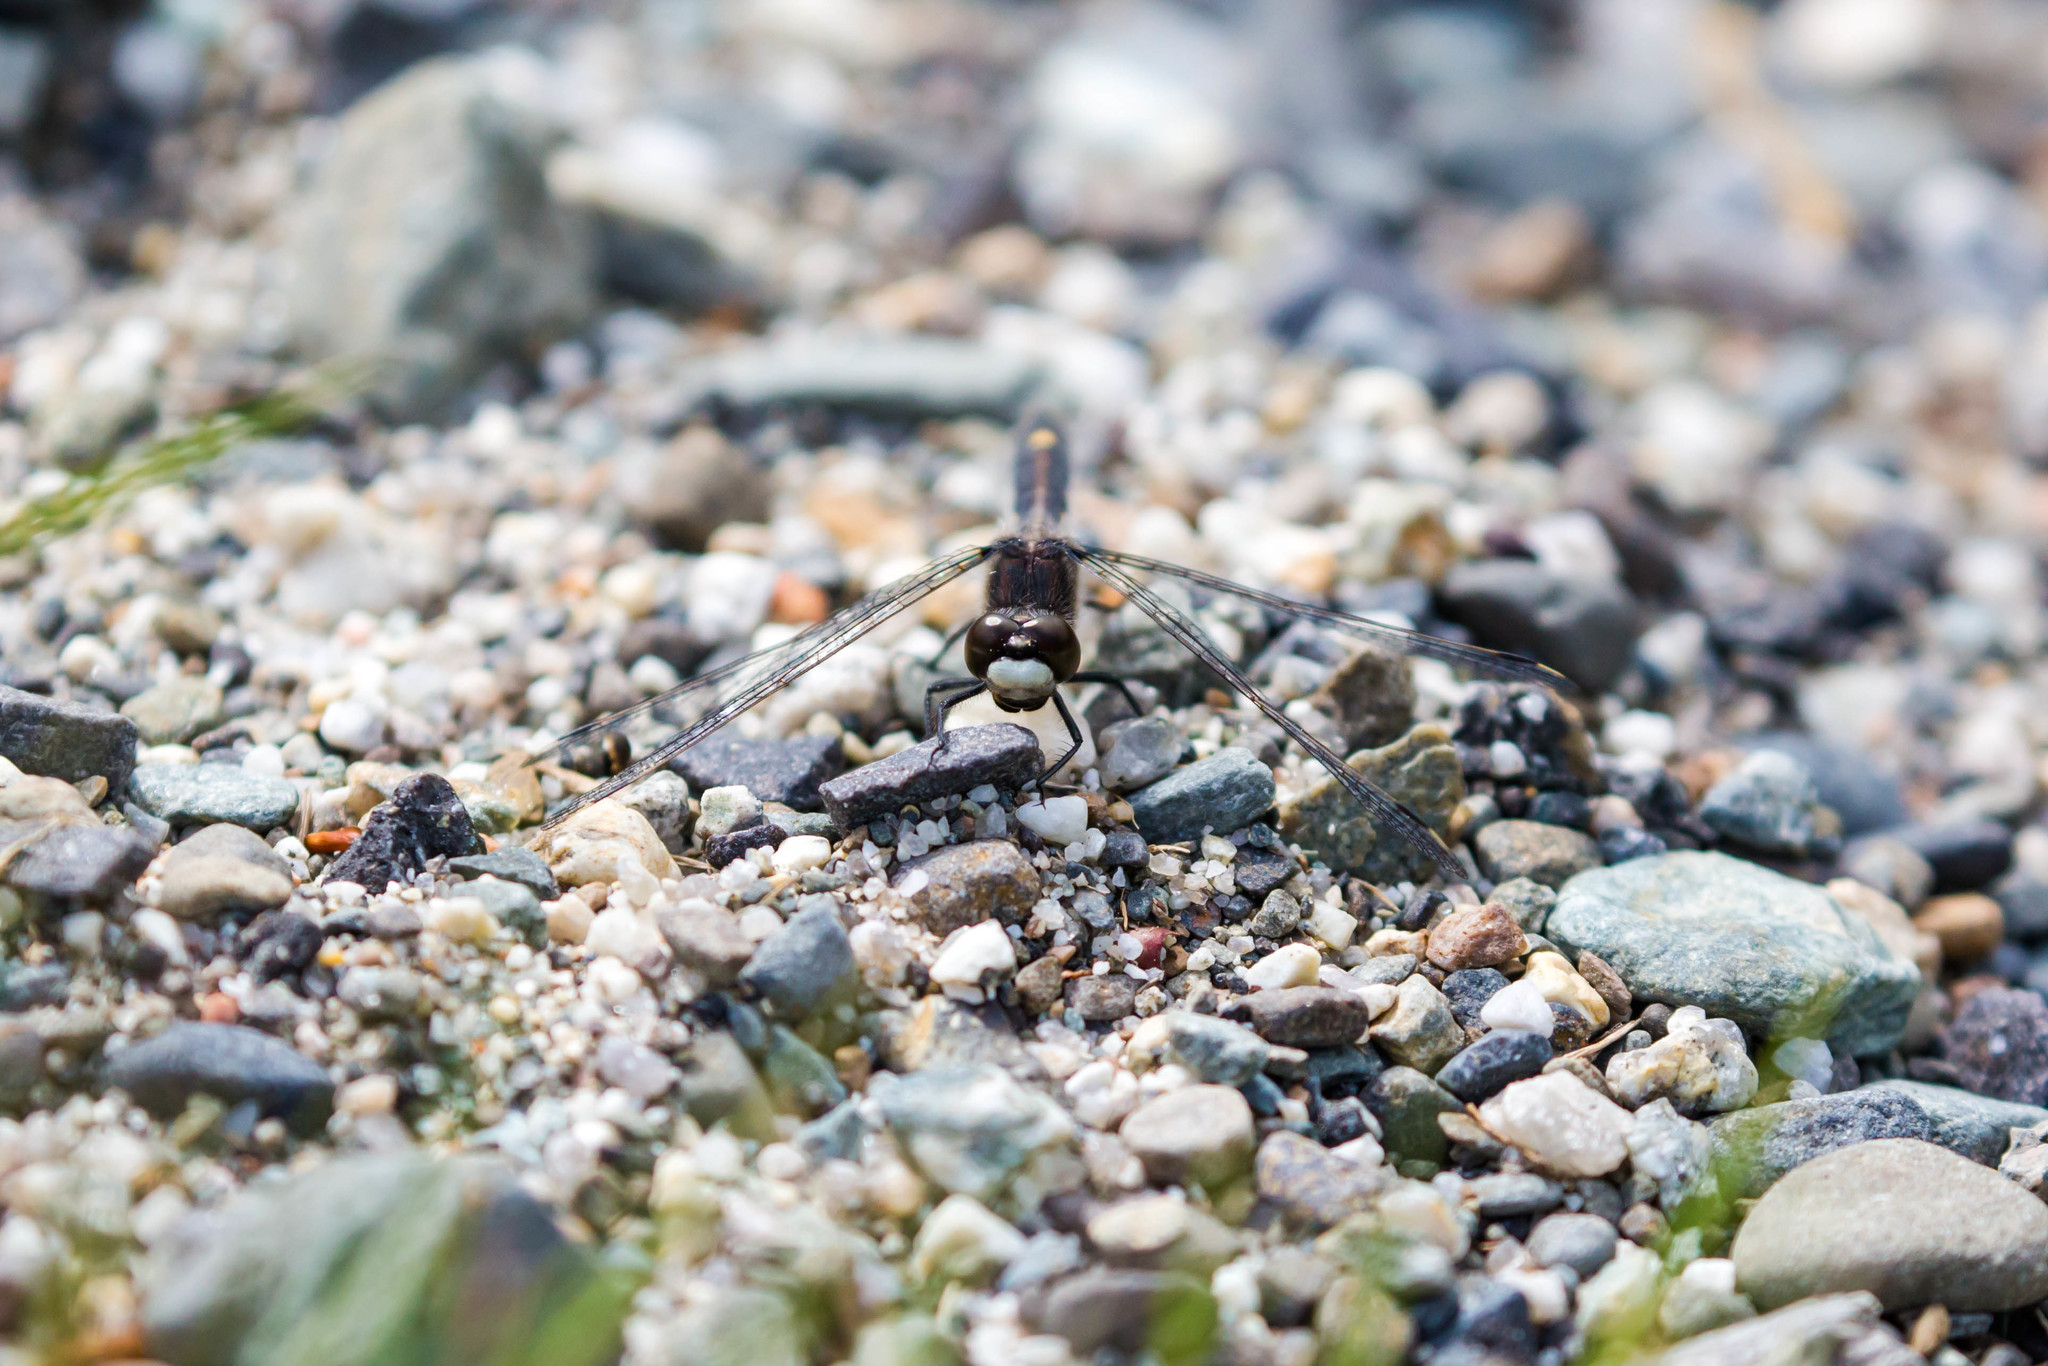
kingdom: Animalia
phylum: Arthropoda
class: Insecta
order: Odonata
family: Libellulidae
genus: Leucorrhinia
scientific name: Leucorrhinia intacta
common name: Dot-tailed whiteface
